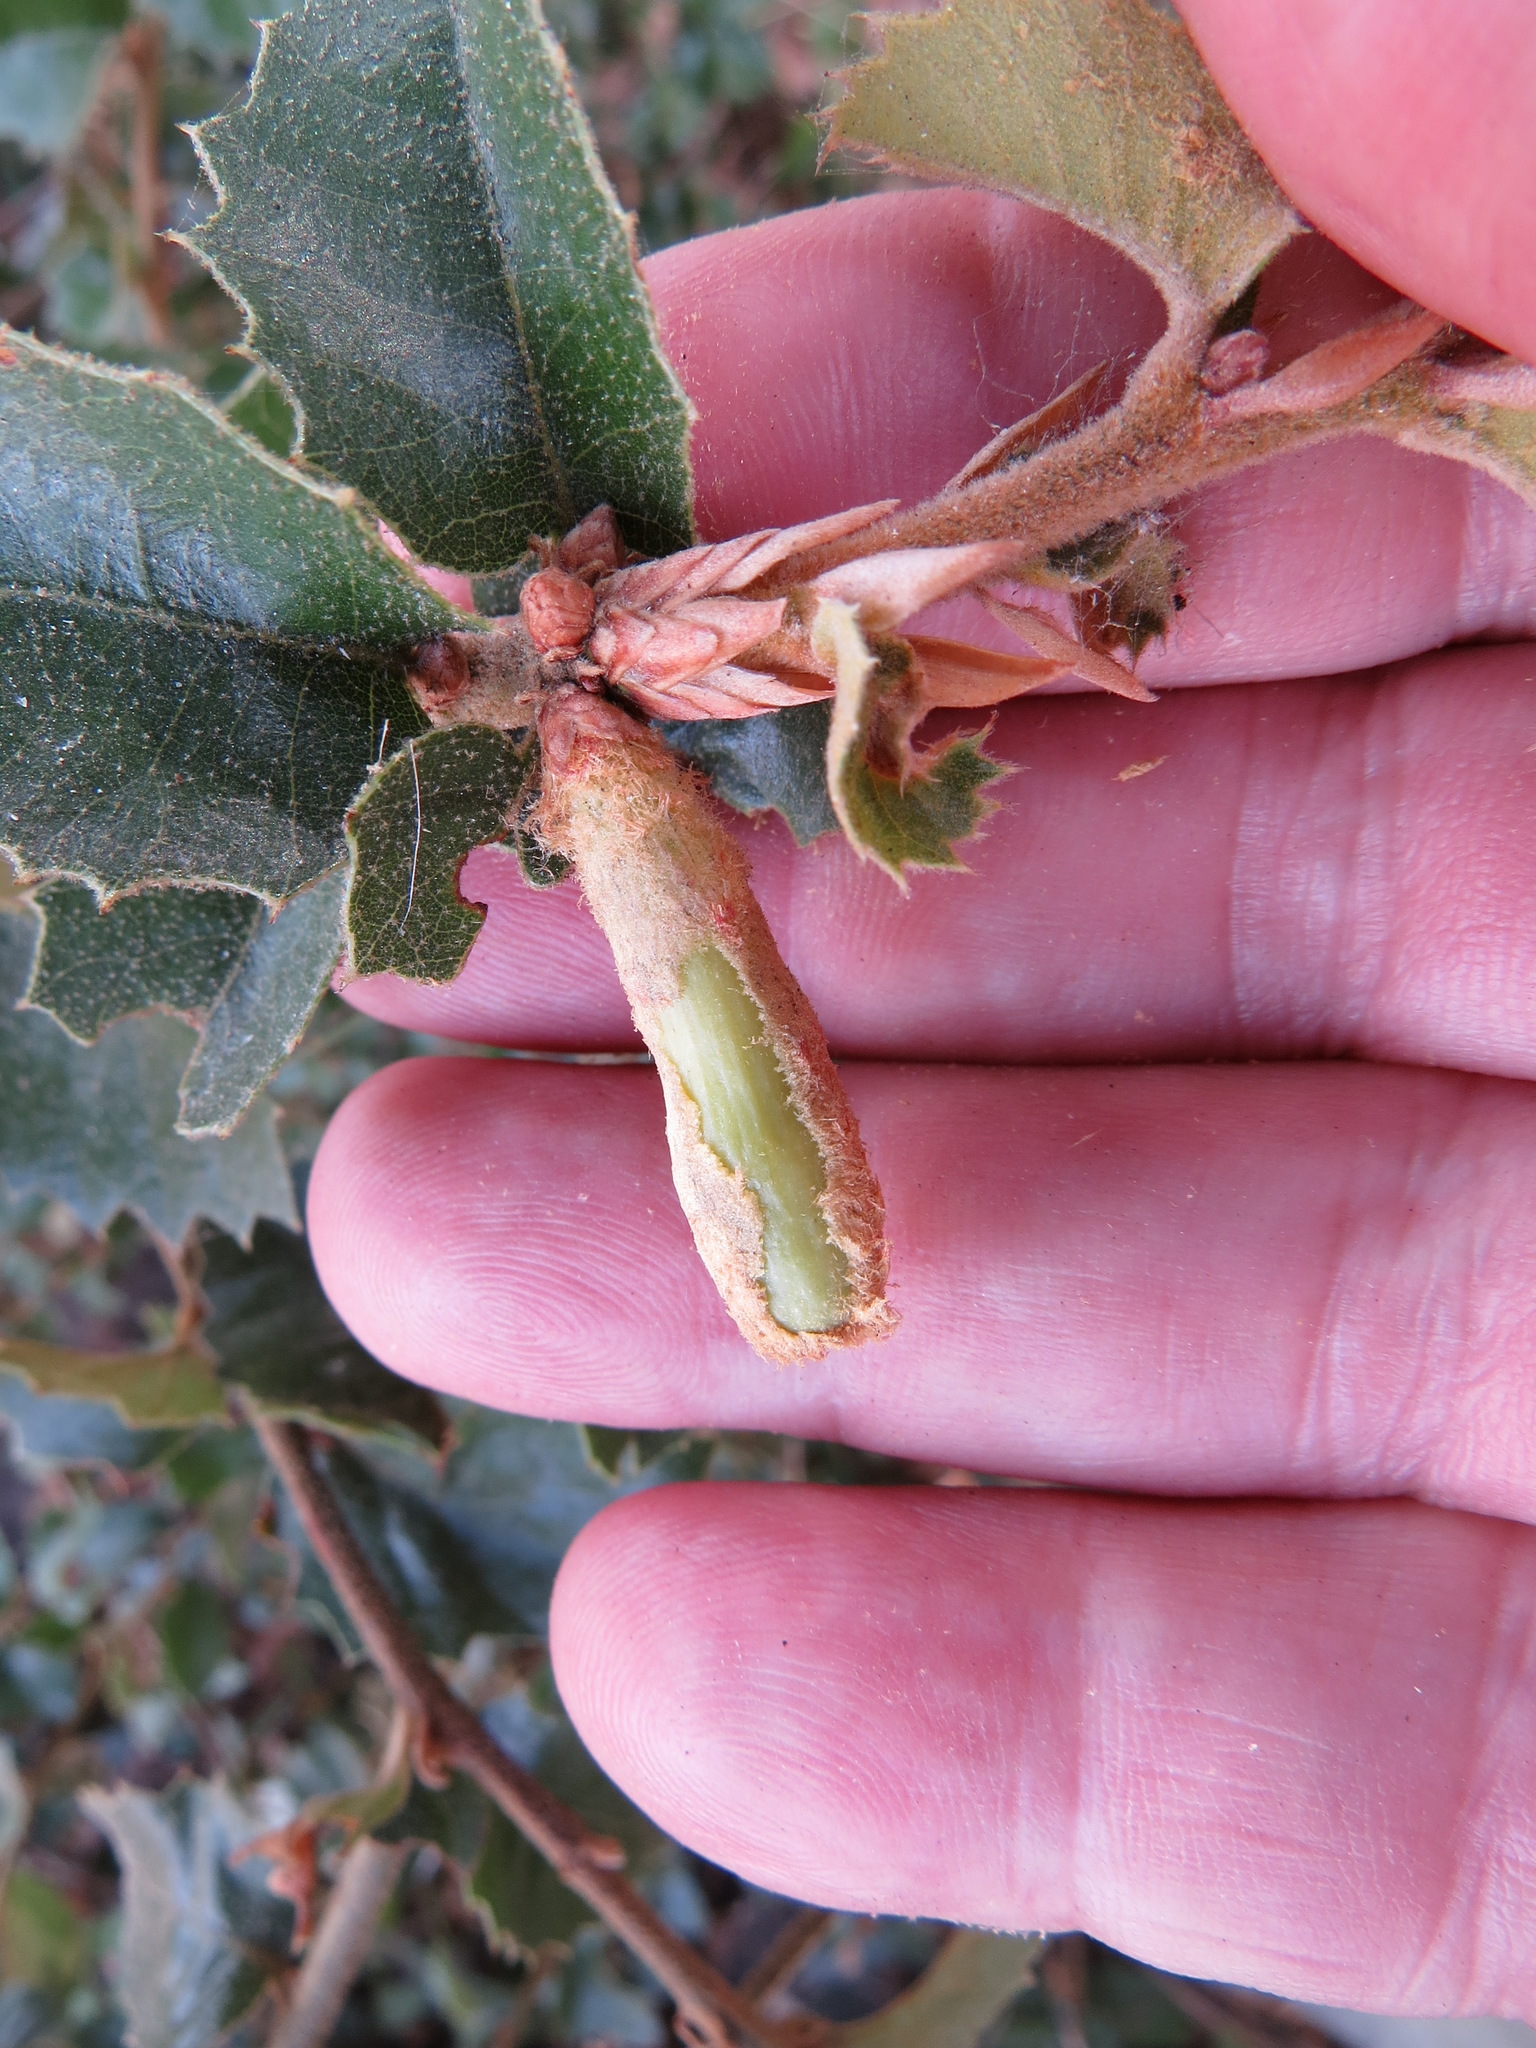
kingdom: Animalia
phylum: Arthropoda
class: Insecta
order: Hymenoptera
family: Cynipidae
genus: Heteroecus
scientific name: Heteroecus
